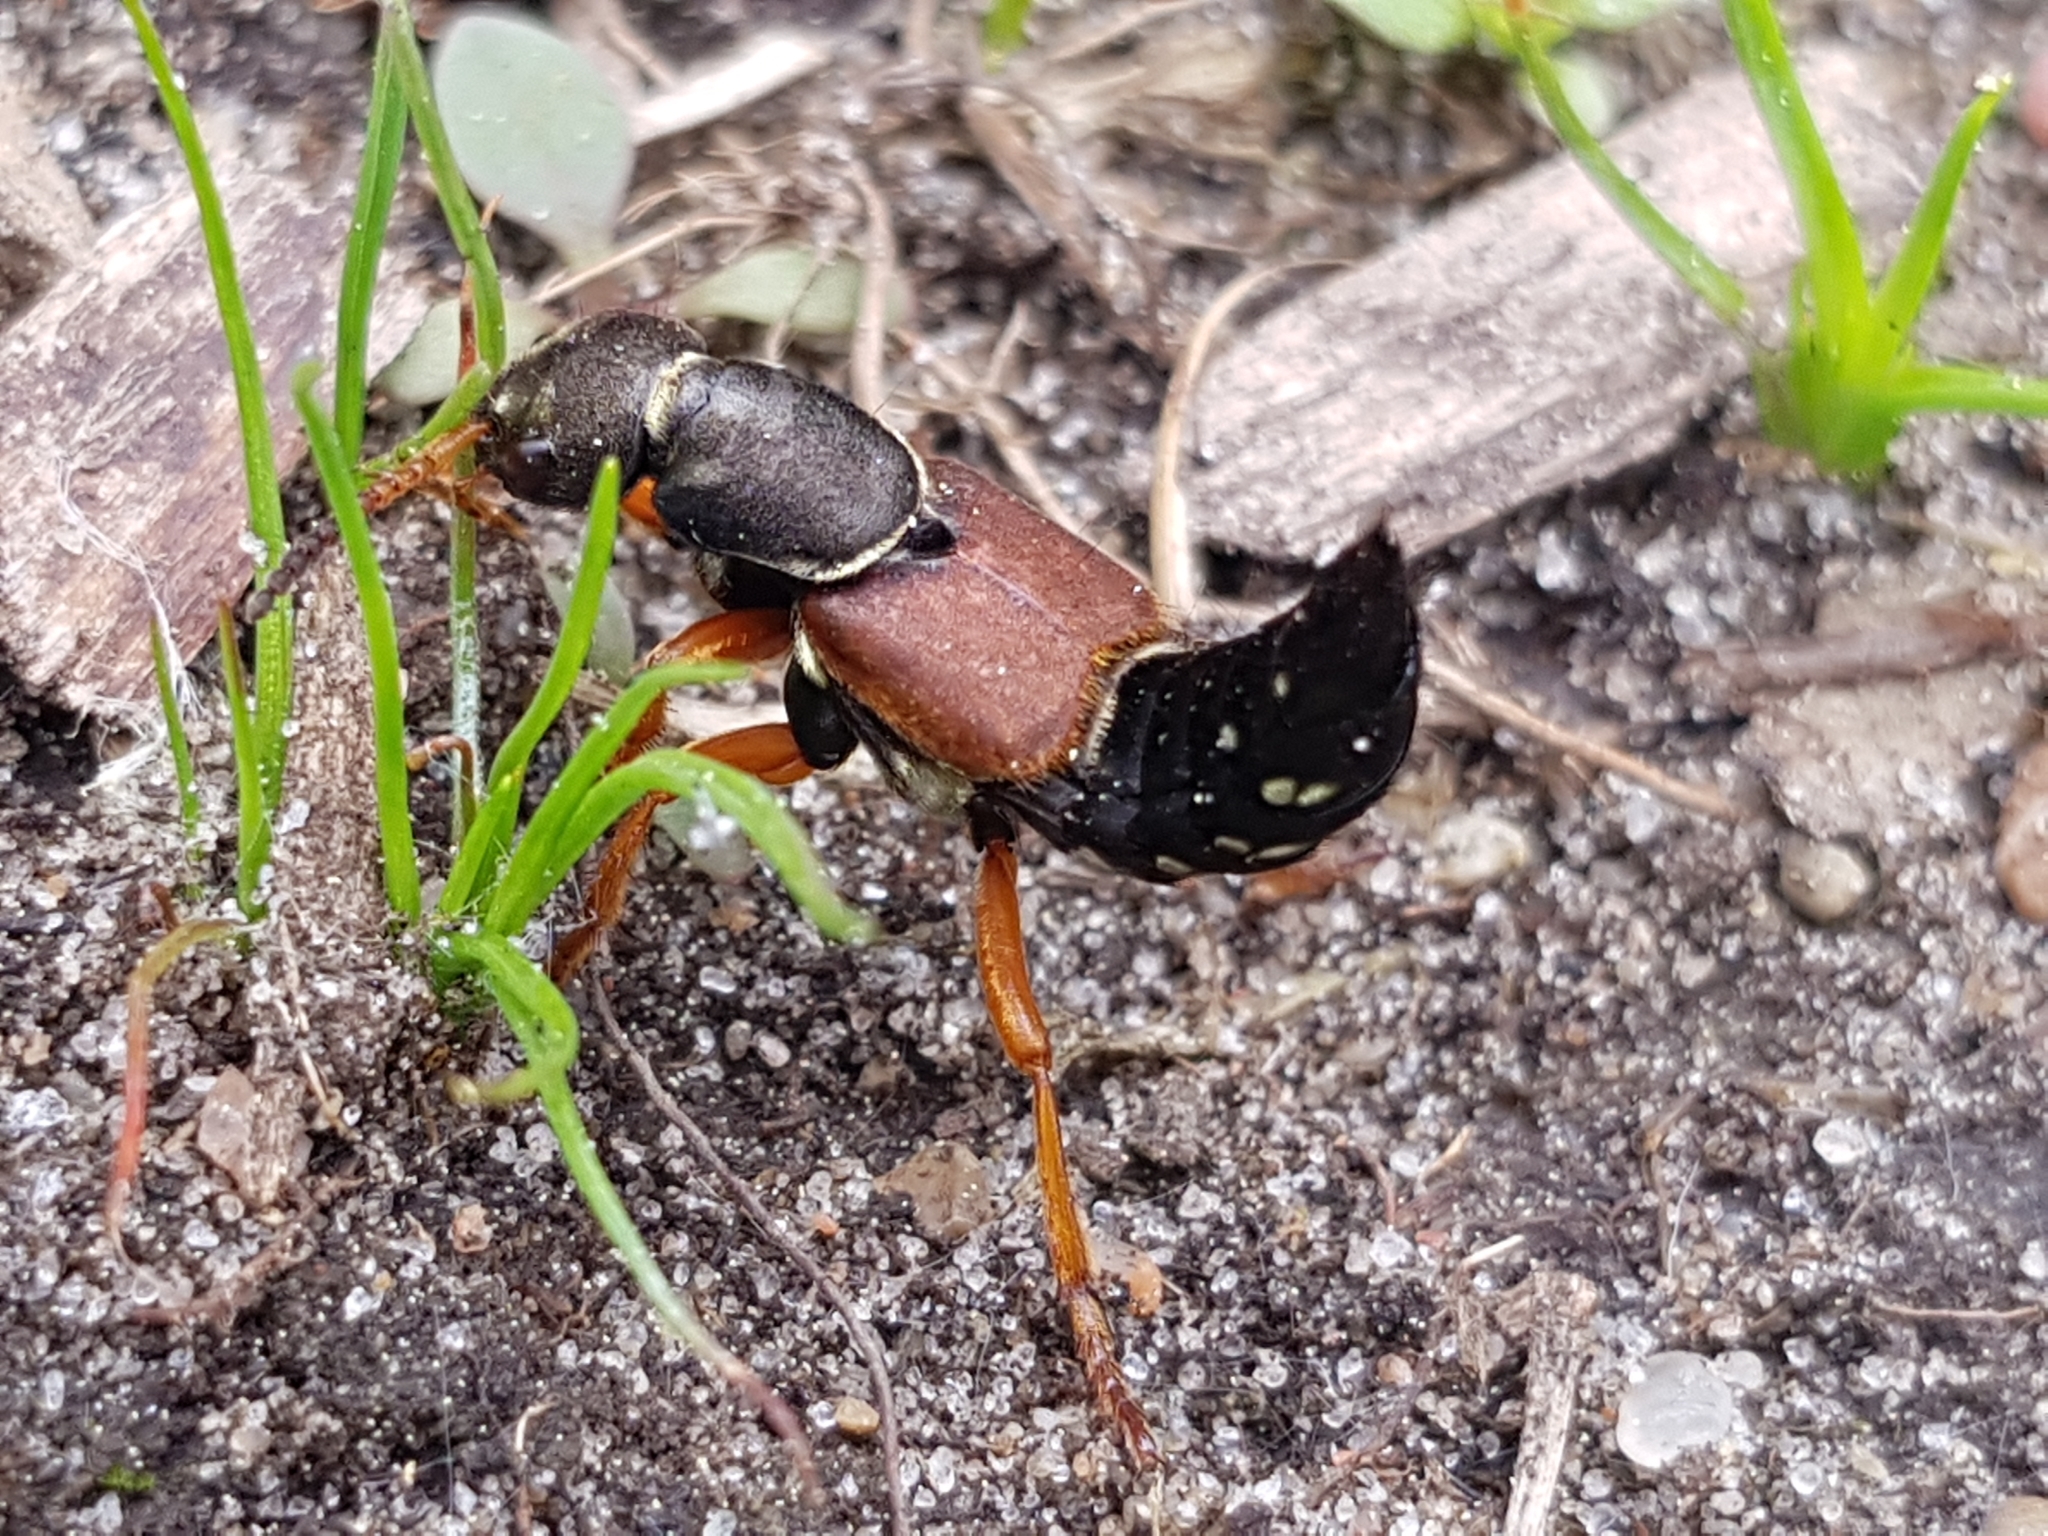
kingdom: Animalia
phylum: Arthropoda
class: Insecta
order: Coleoptera
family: Staphylinidae
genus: Staphylinus
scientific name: Staphylinus dimidiaticornis
